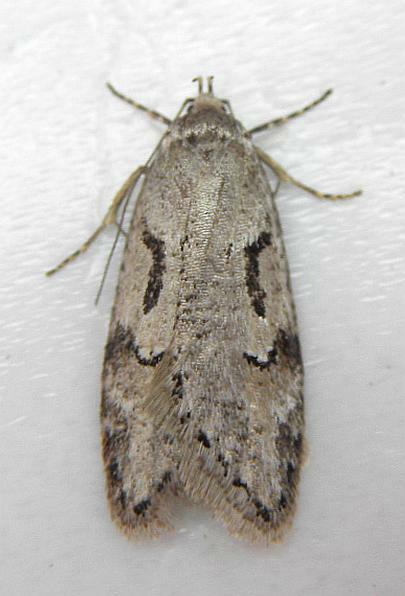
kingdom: Animalia
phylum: Arthropoda
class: Insecta
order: Lepidoptera
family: Depressariidae
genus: Semioscopis
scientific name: Semioscopis merriccella
